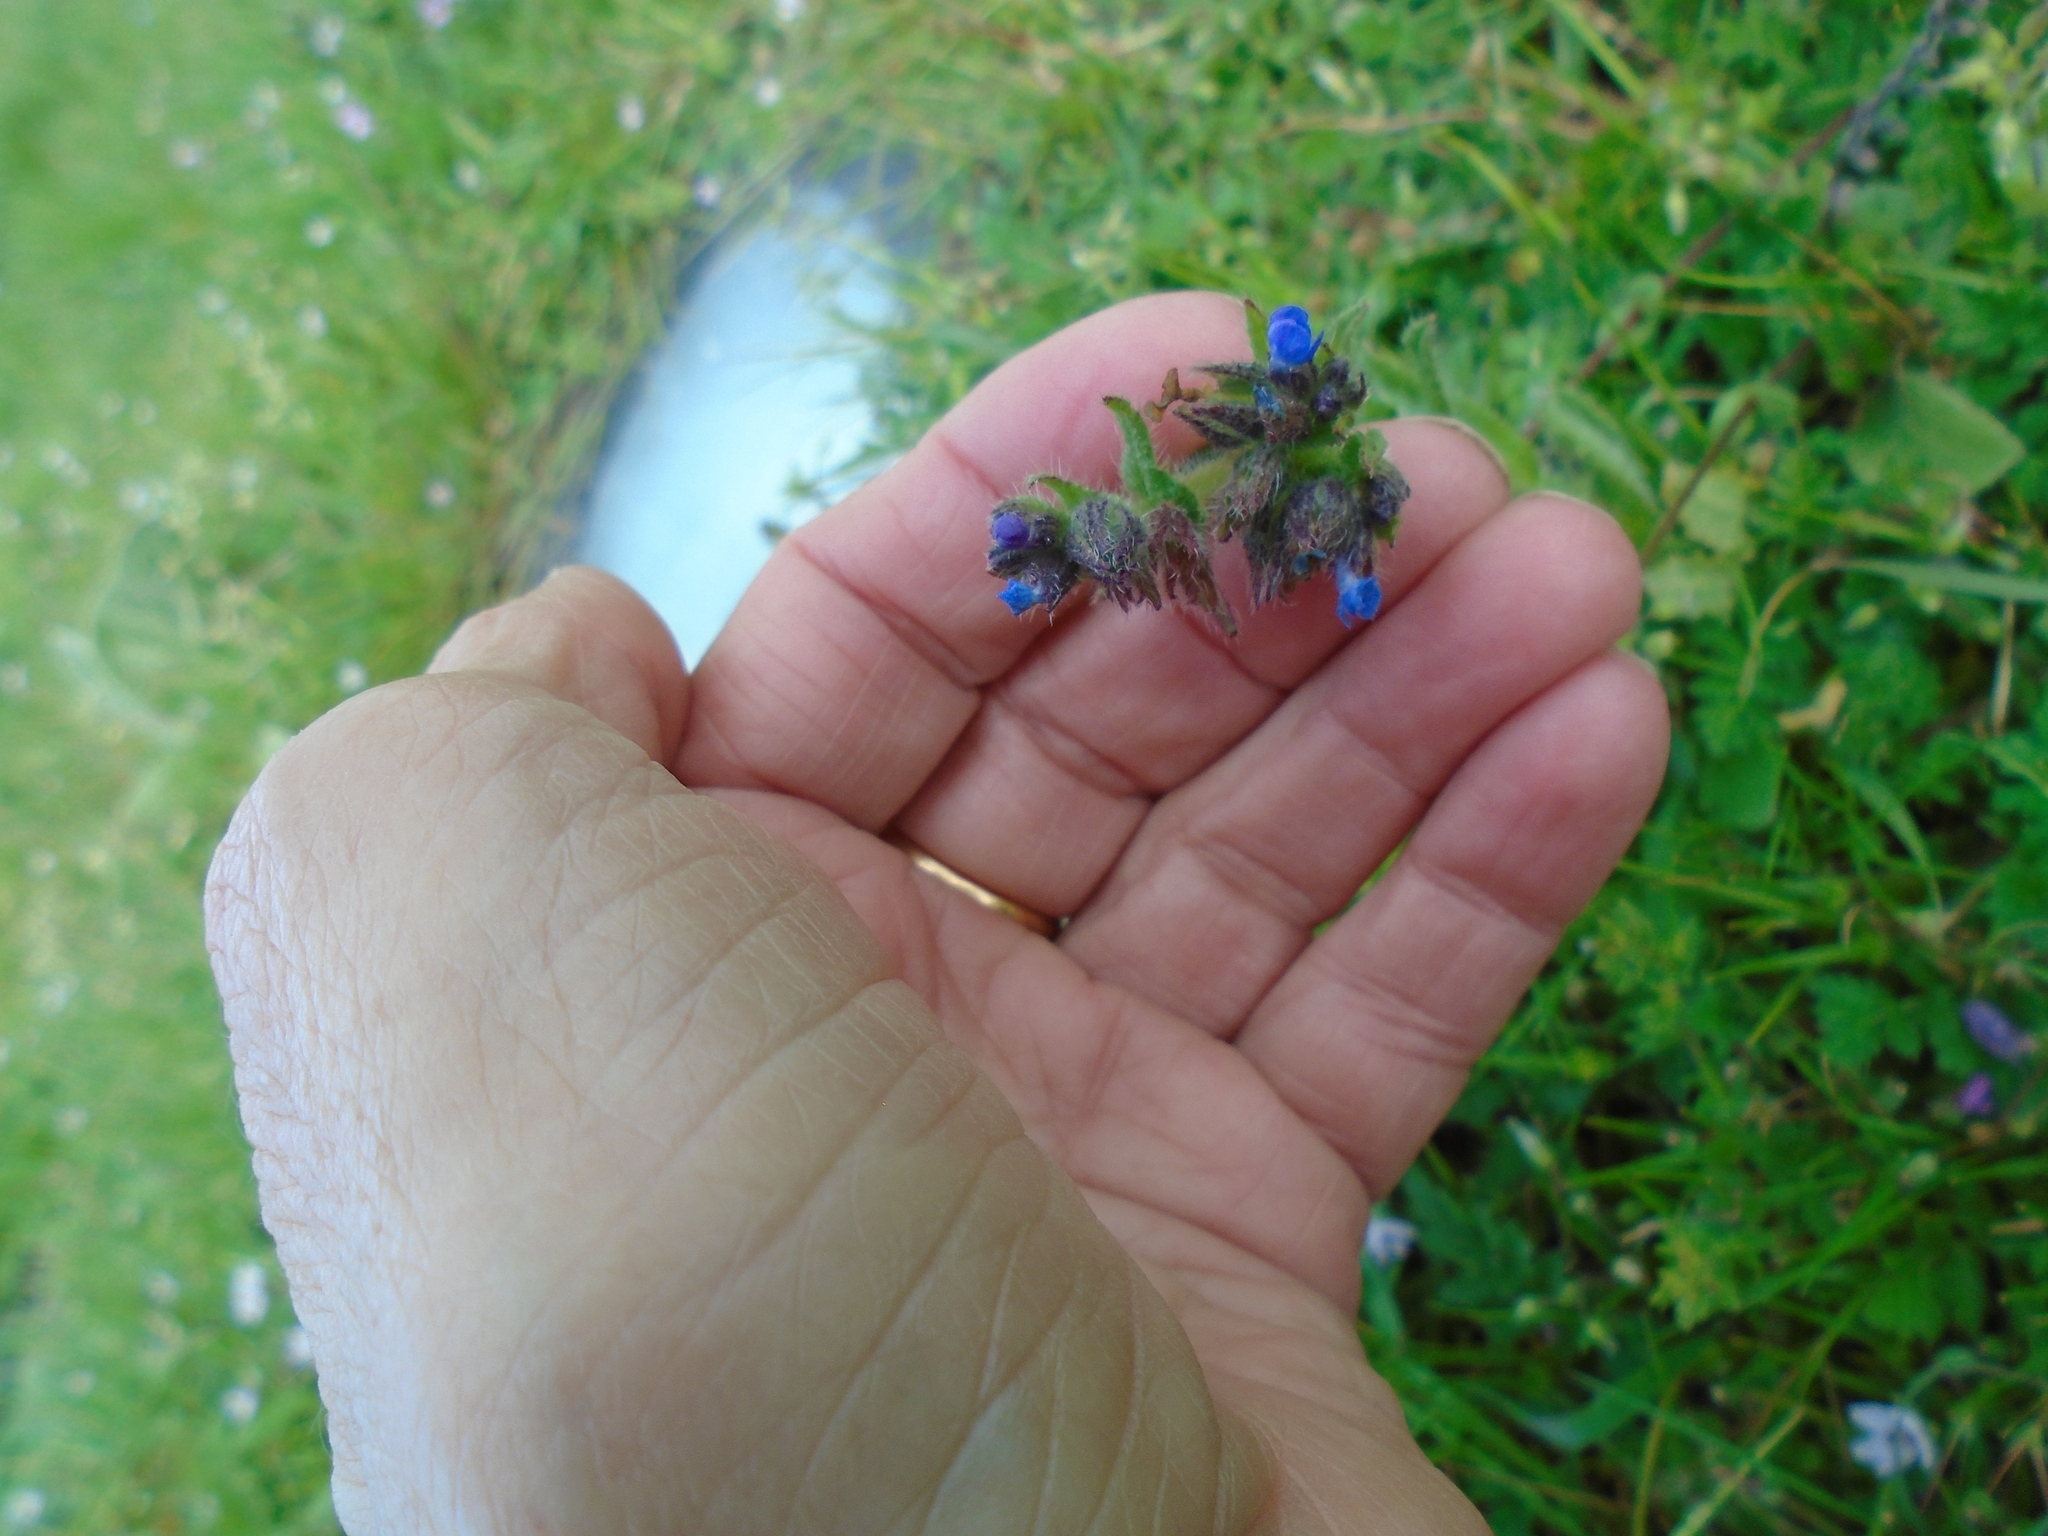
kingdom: Plantae
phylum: Tracheophyta
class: Magnoliopsida
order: Boraginales
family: Boraginaceae
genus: Lycopsis
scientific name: Lycopsis arvensis
